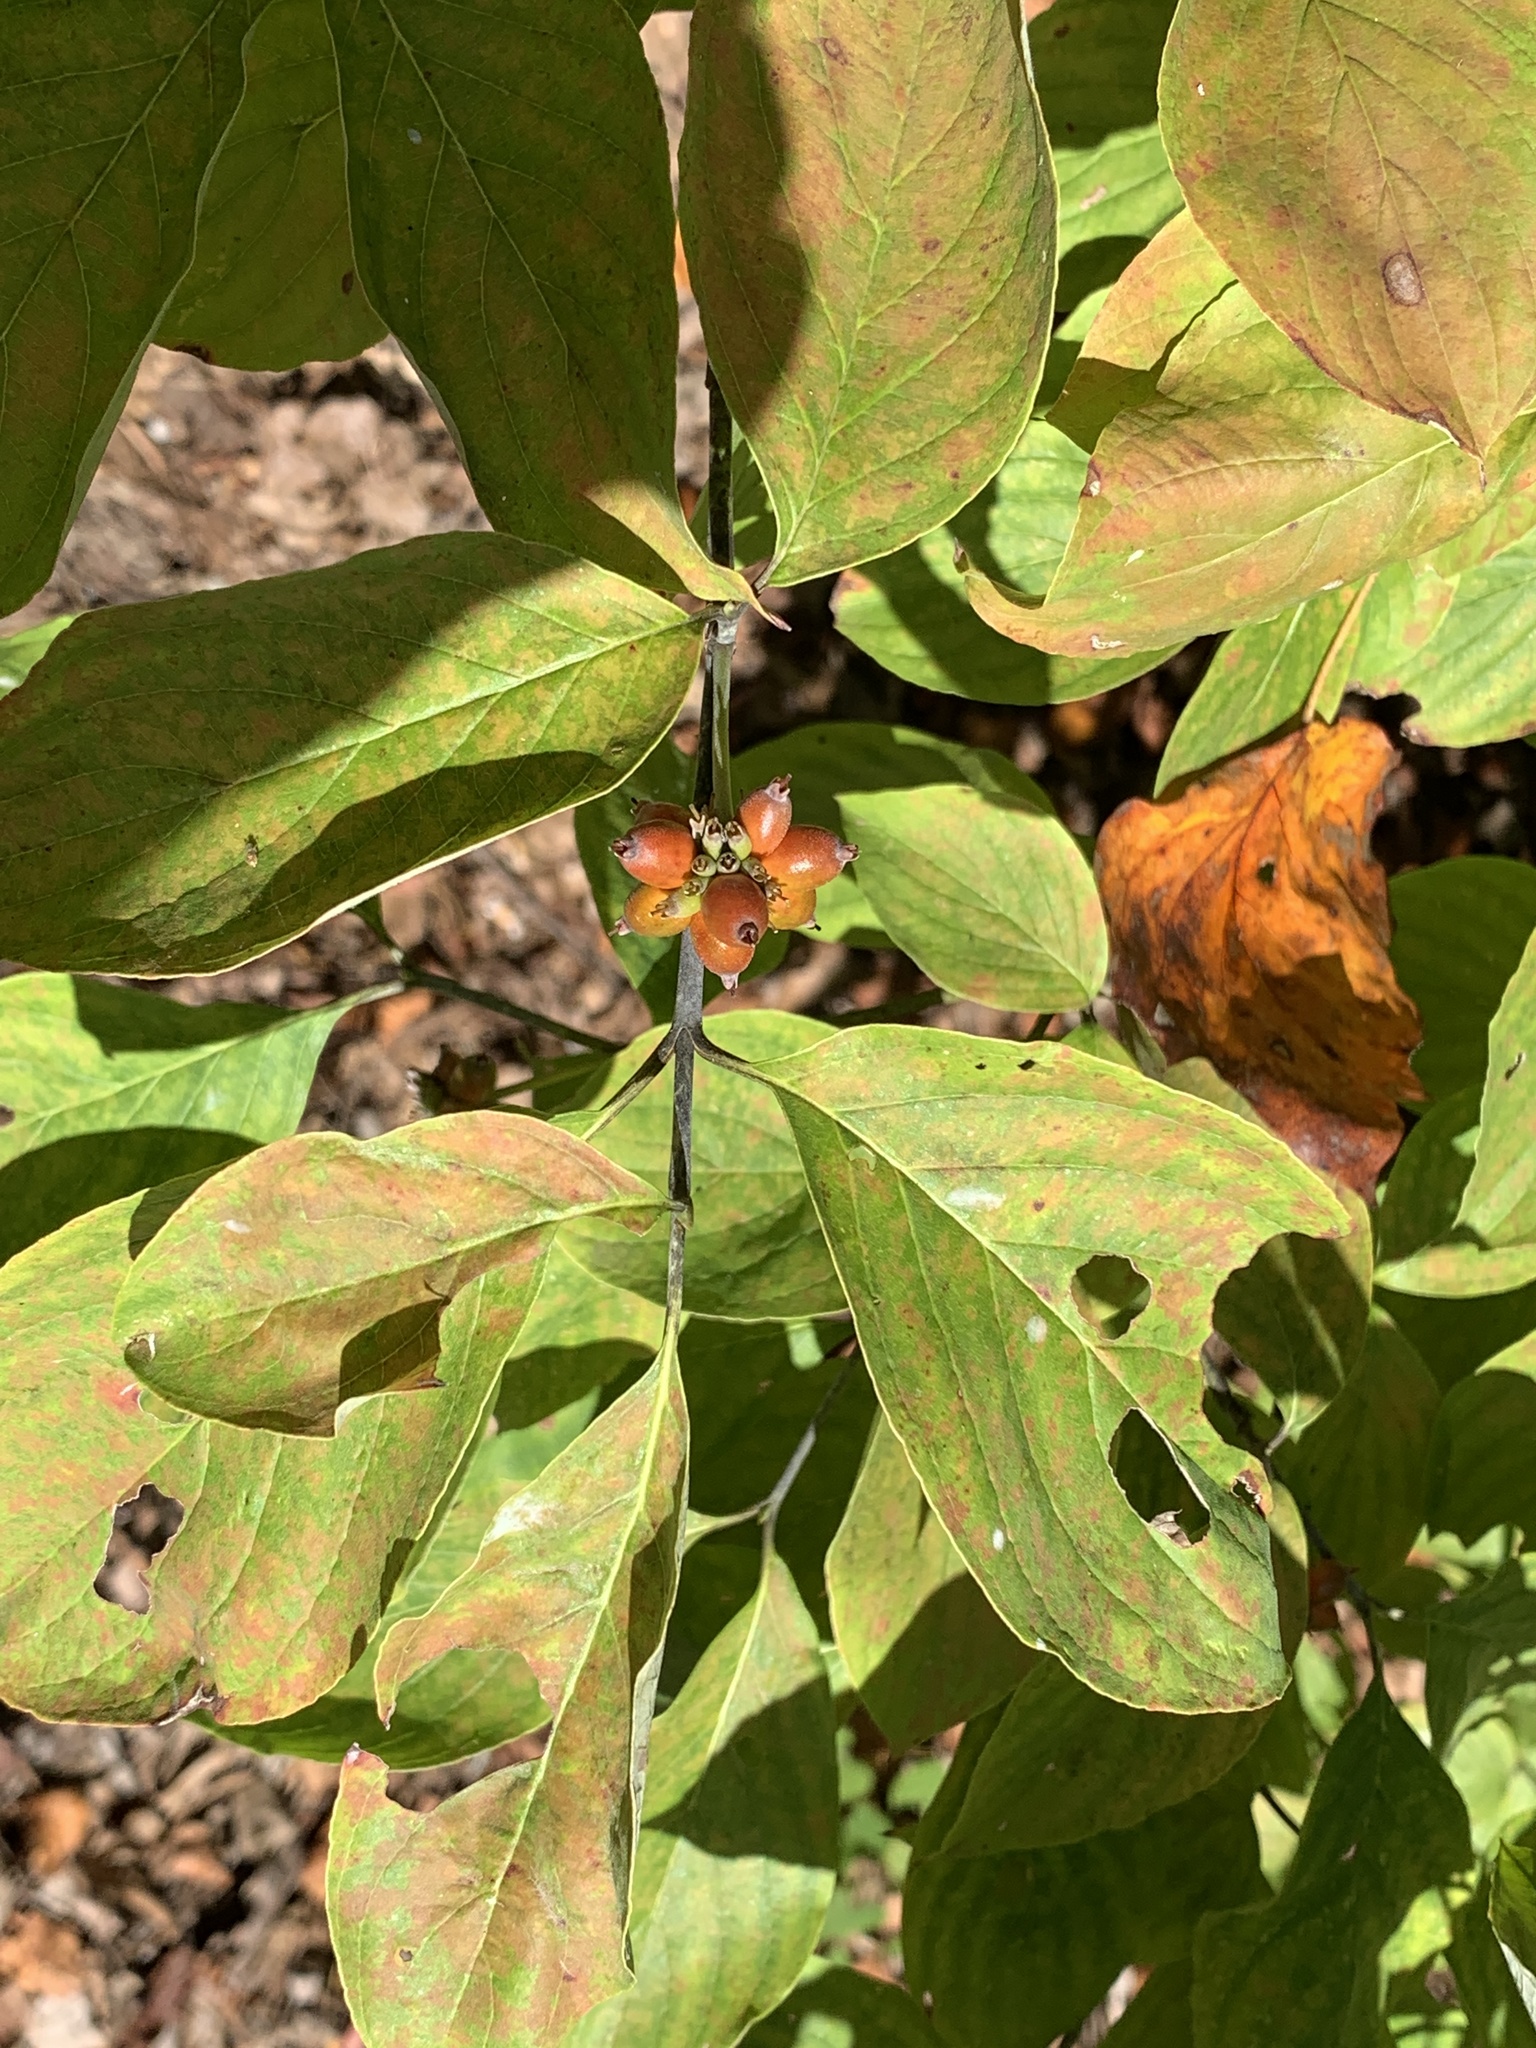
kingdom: Plantae
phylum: Tracheophyta
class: Magnoliopsida
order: Cornales
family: Cornaceae
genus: Cornus
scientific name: Cornus florida
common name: Flowering dogwood
